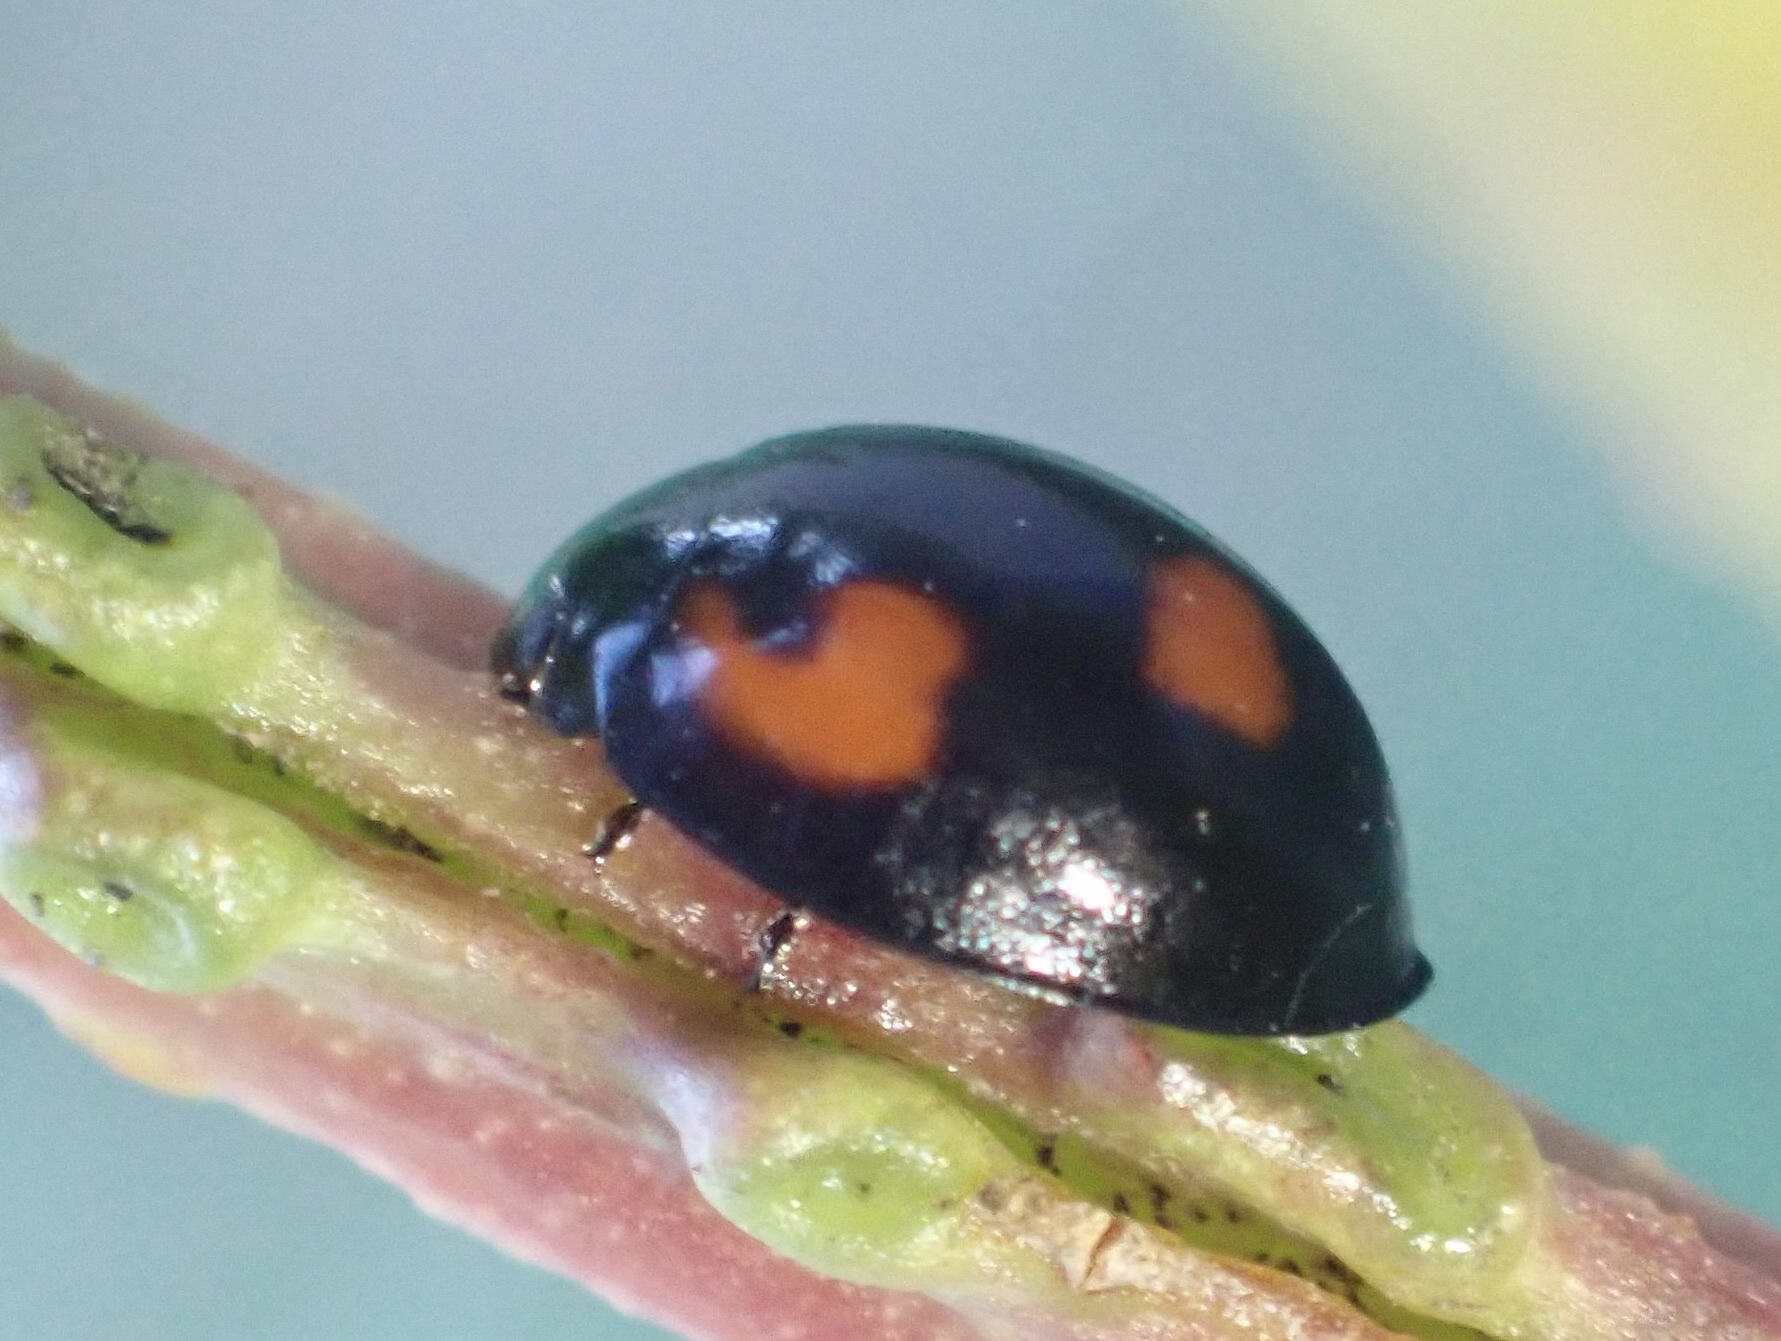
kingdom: Animalia
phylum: Arthropoda
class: Insecta
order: Coleoptera
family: Coccinellidae
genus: Brumus
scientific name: Brumus quadripustulatus
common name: Ladybird beetle
